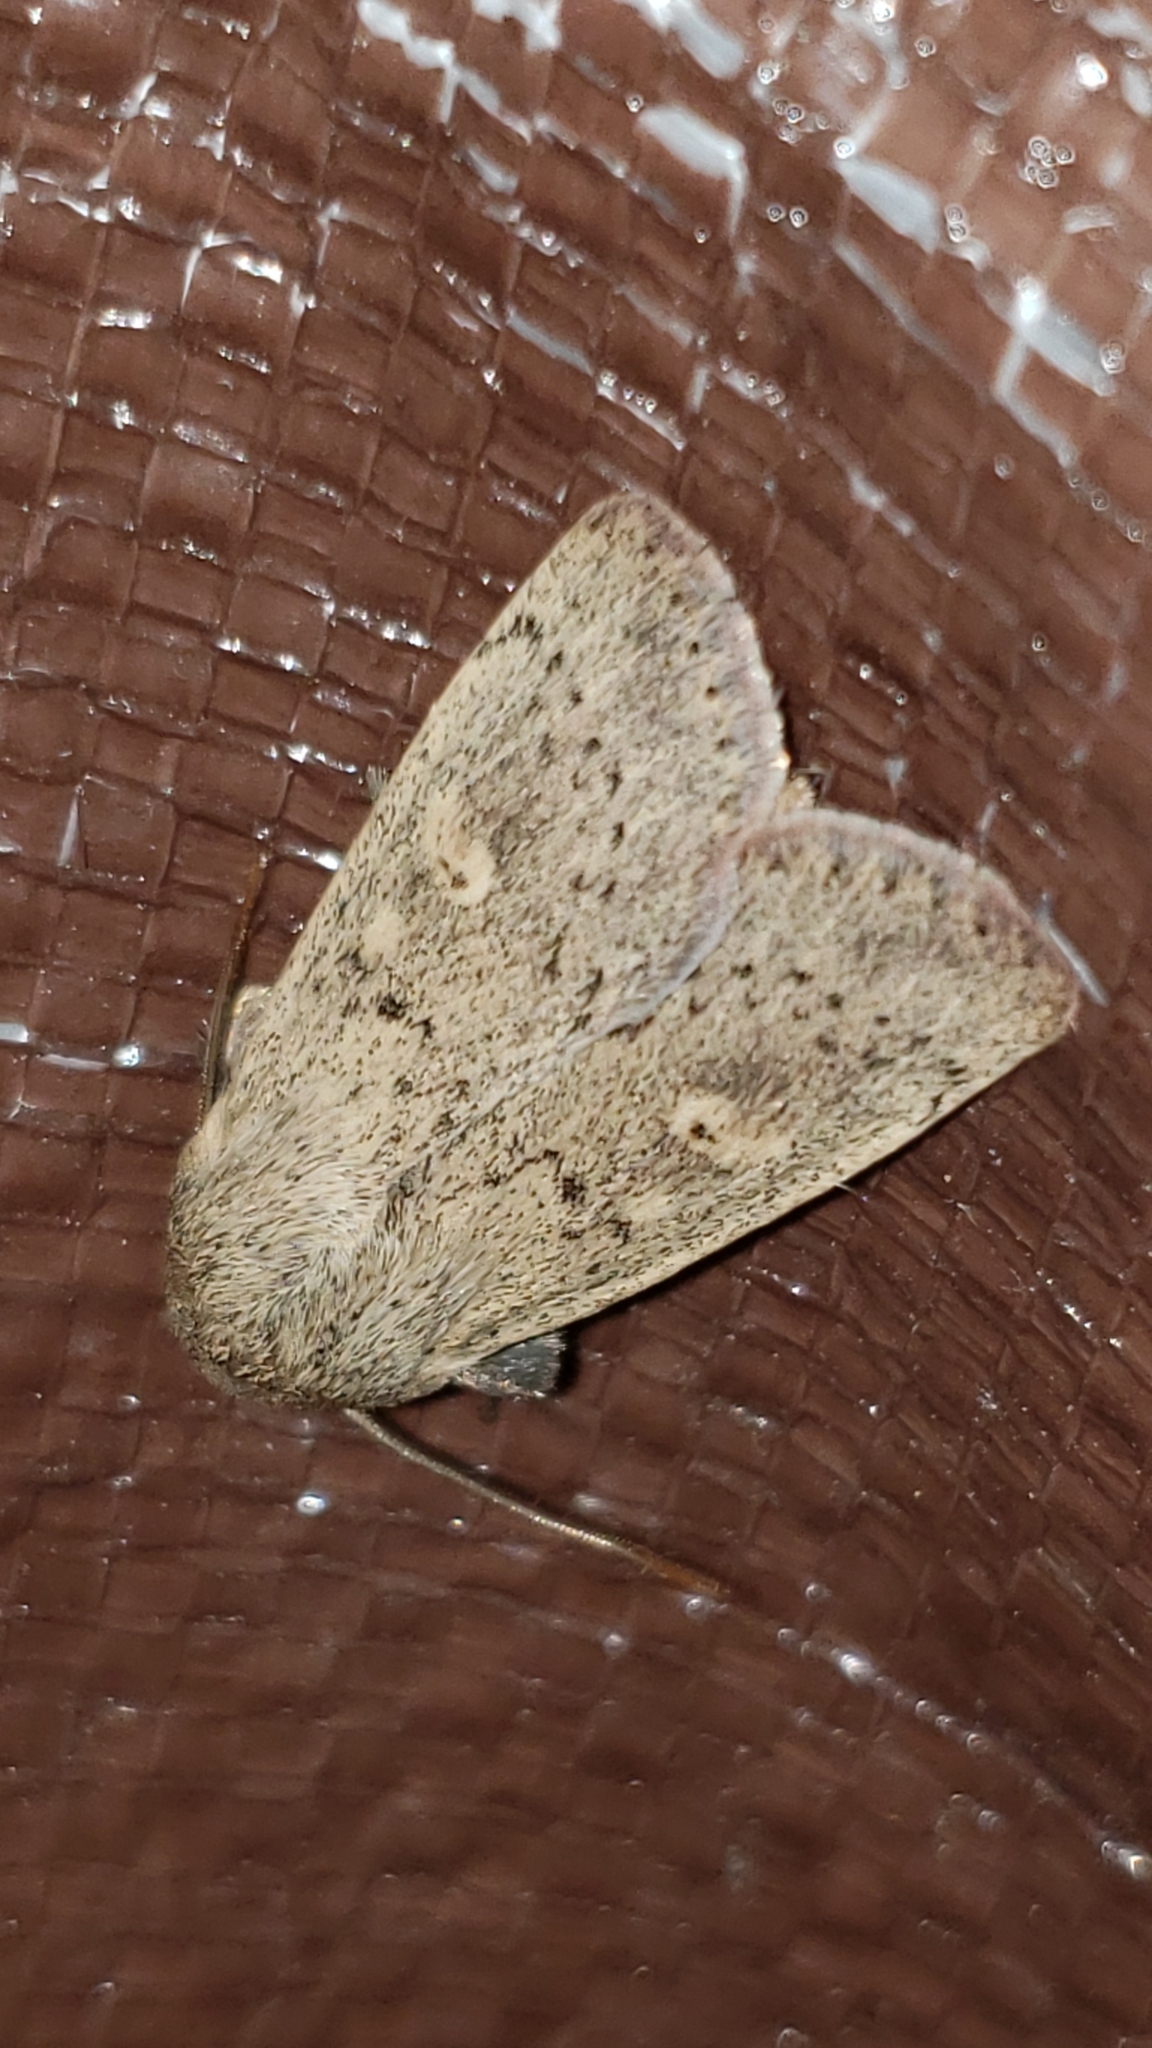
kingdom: Animalia
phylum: Arthropoda
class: Insecta
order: Lepidoptera
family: Noctuidae
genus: Leucania
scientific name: Leucania ursula
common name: Ursula wainscot
